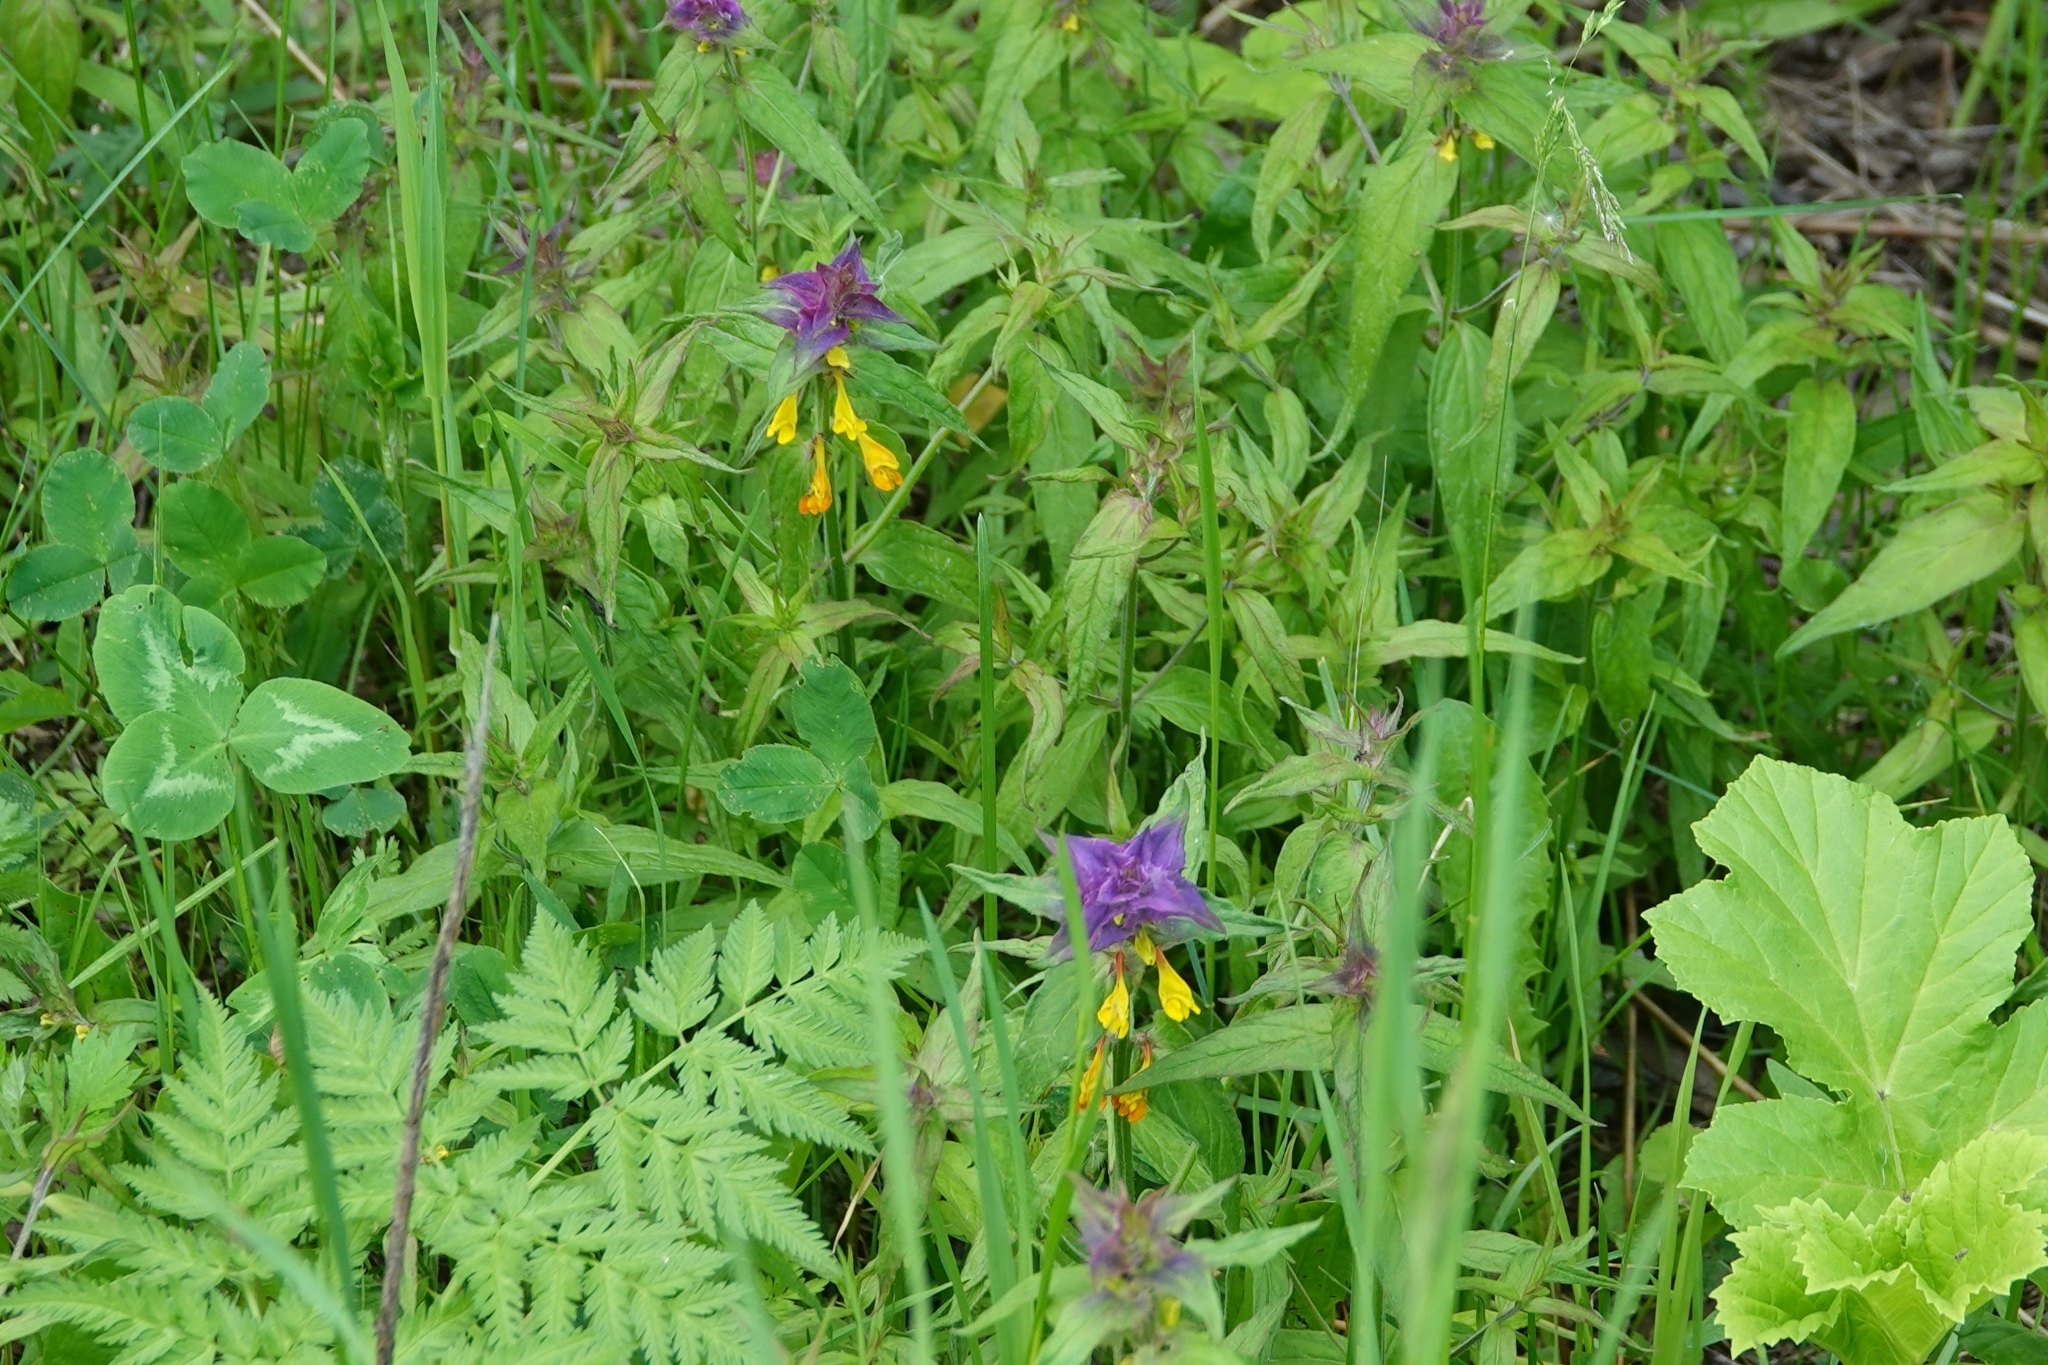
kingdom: Plantae
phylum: Tracheophyta
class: Magnoliopsida
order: Lamiales
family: Orobanchaceae
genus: Melampyrum
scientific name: Melampyrum nemorosum
